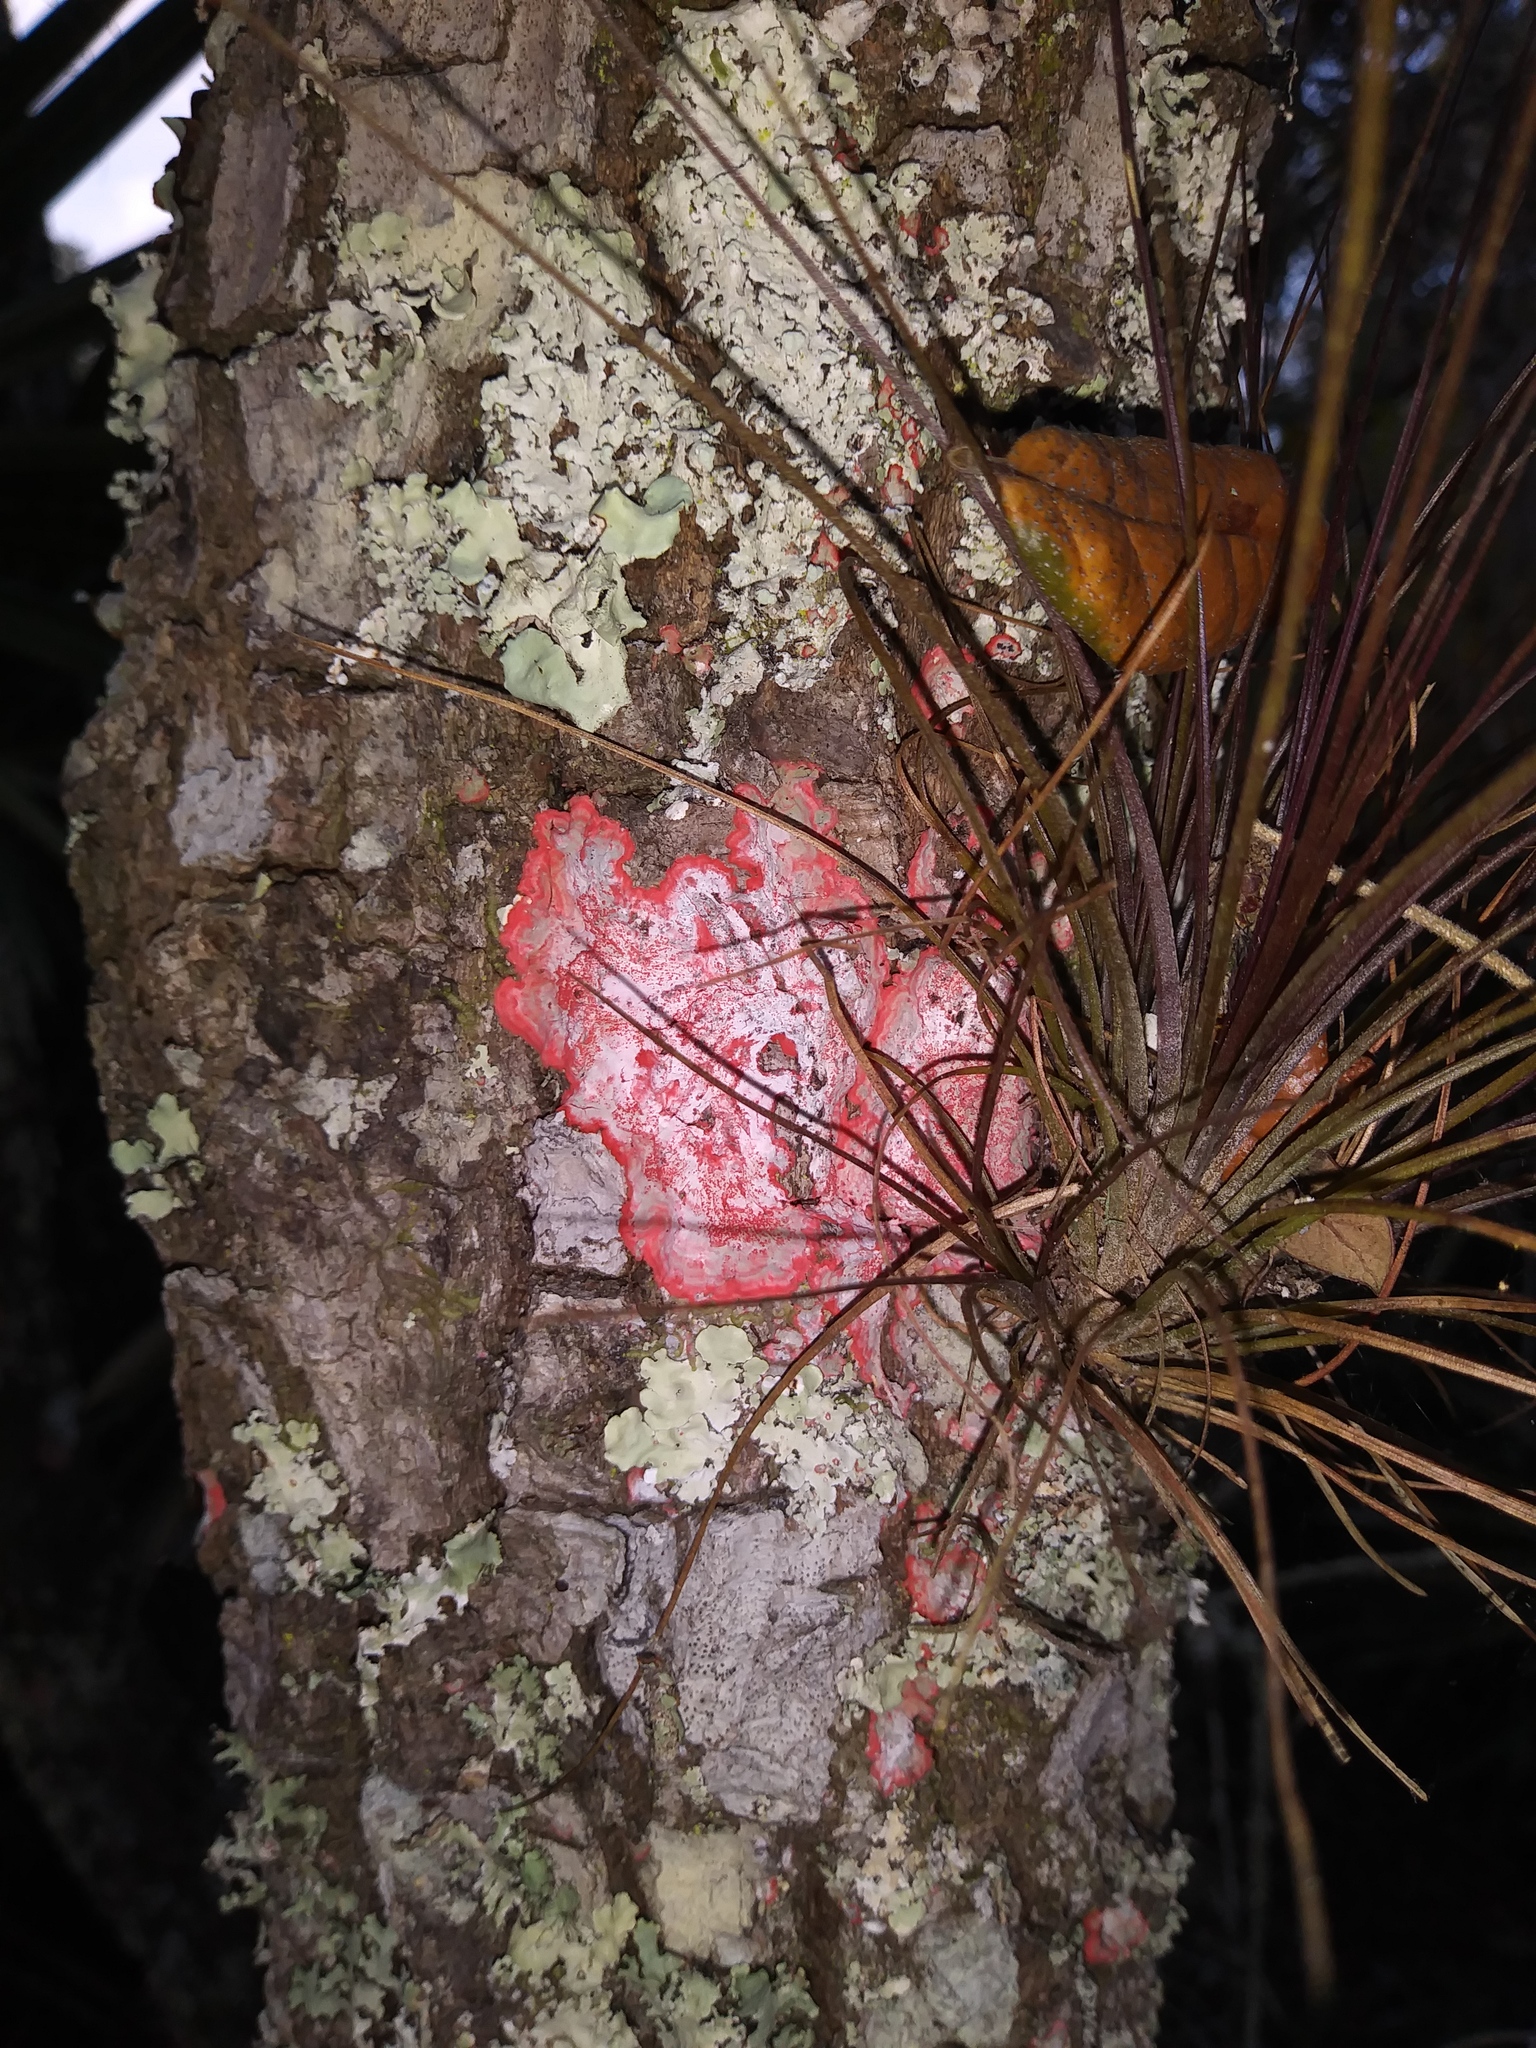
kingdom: Fungi
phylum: Ascomycota
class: Arthoniomycetes
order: Arthoniales
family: Arthoniaceae
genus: Herpothallon
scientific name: Herpothallon rubrocinctum
